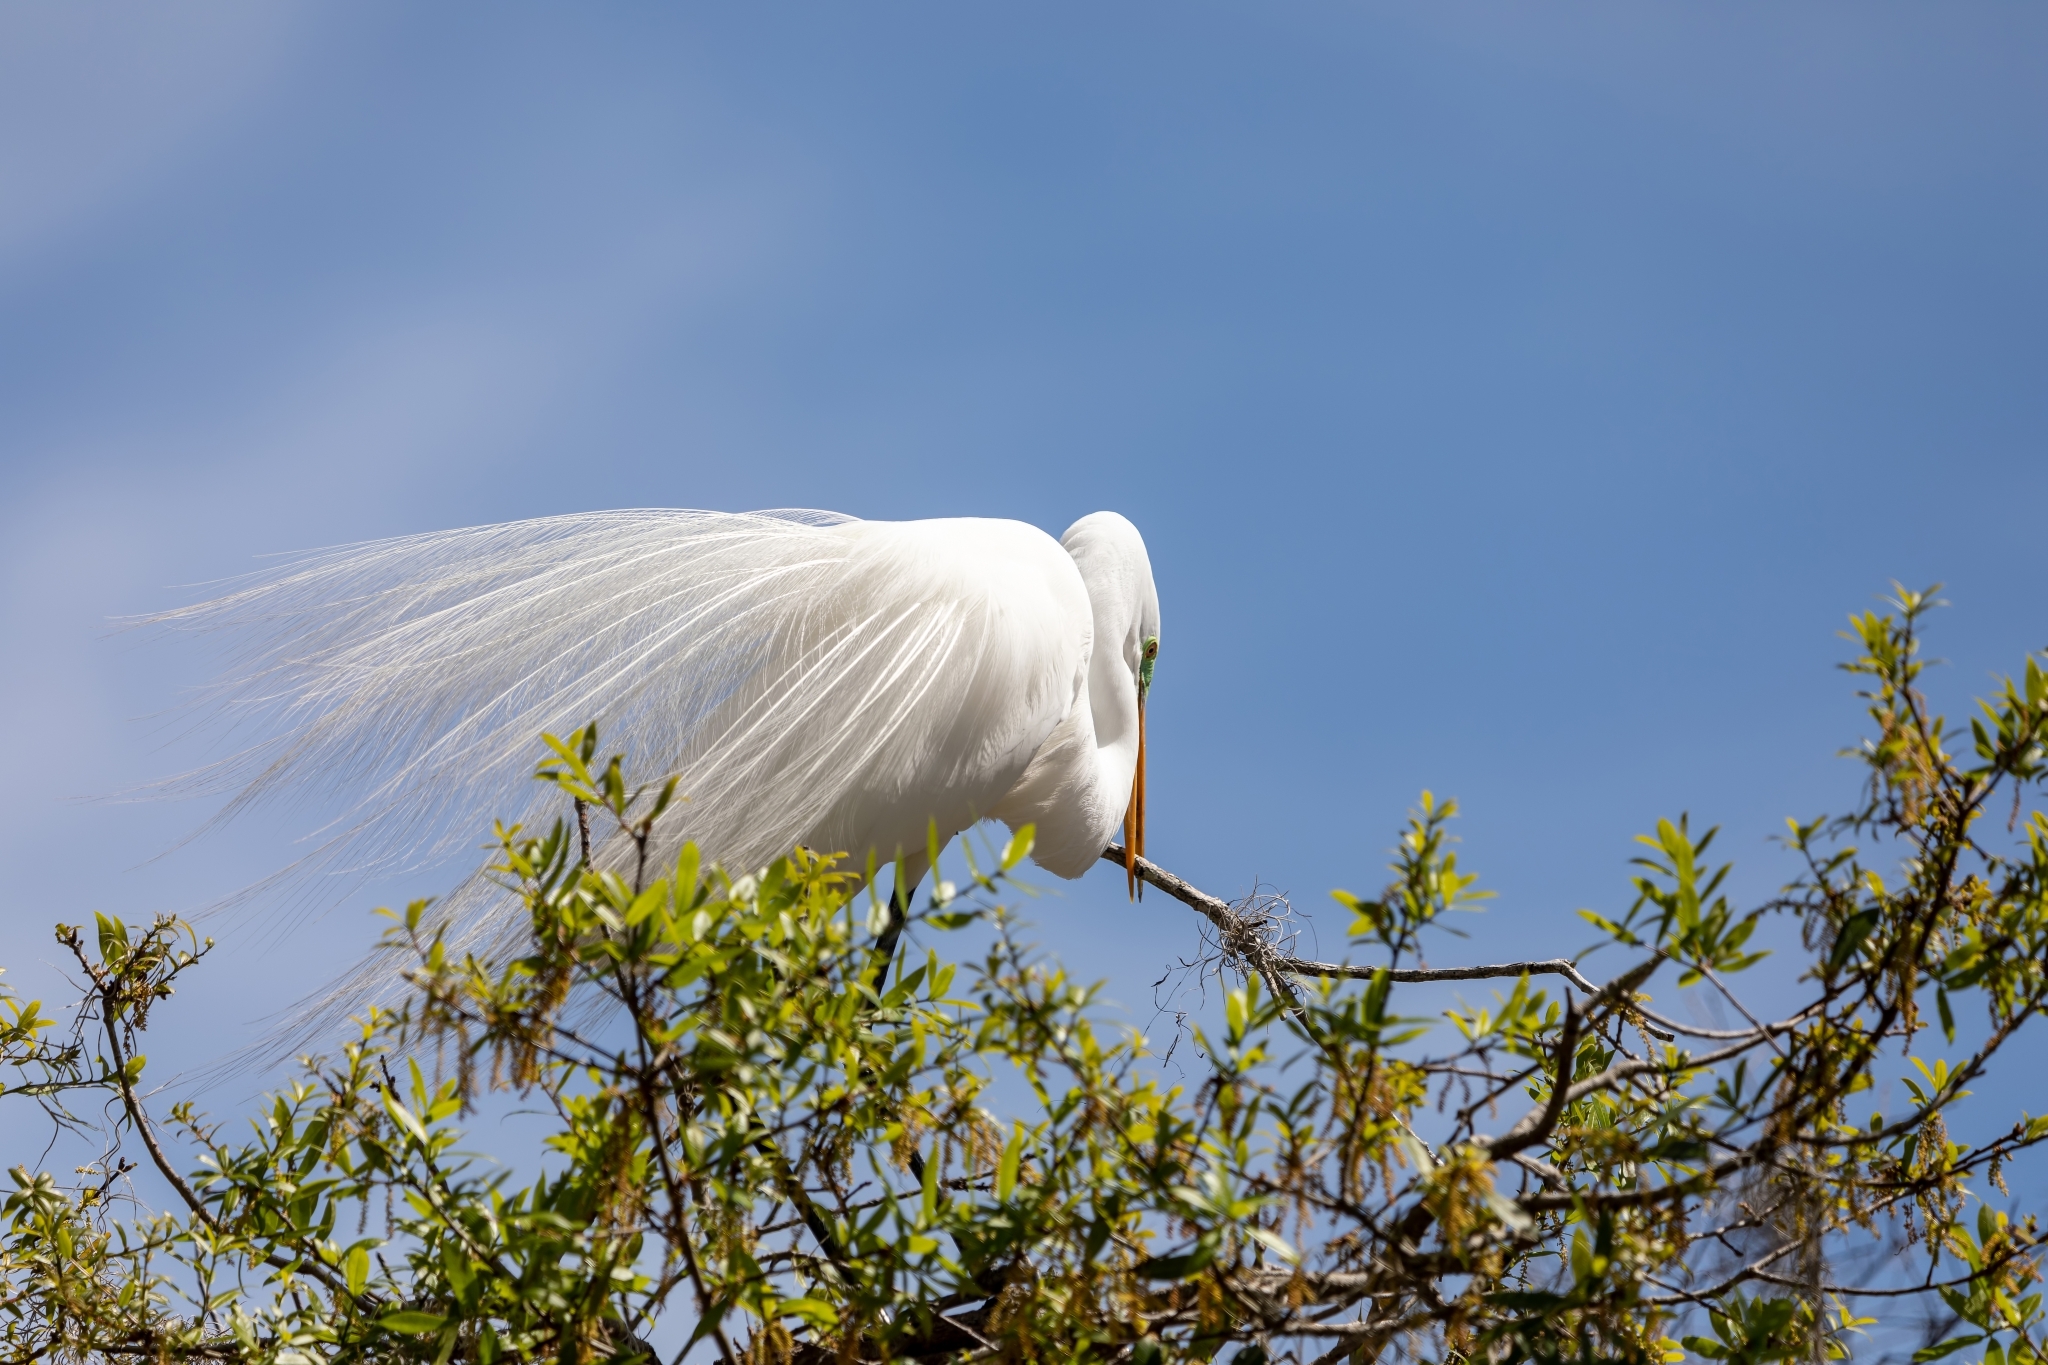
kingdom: Animalia
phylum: Chordata
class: Aves
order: Pelecaniformes
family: Ardeidae
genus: Ardea
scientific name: Ardea alba
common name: Great egret
